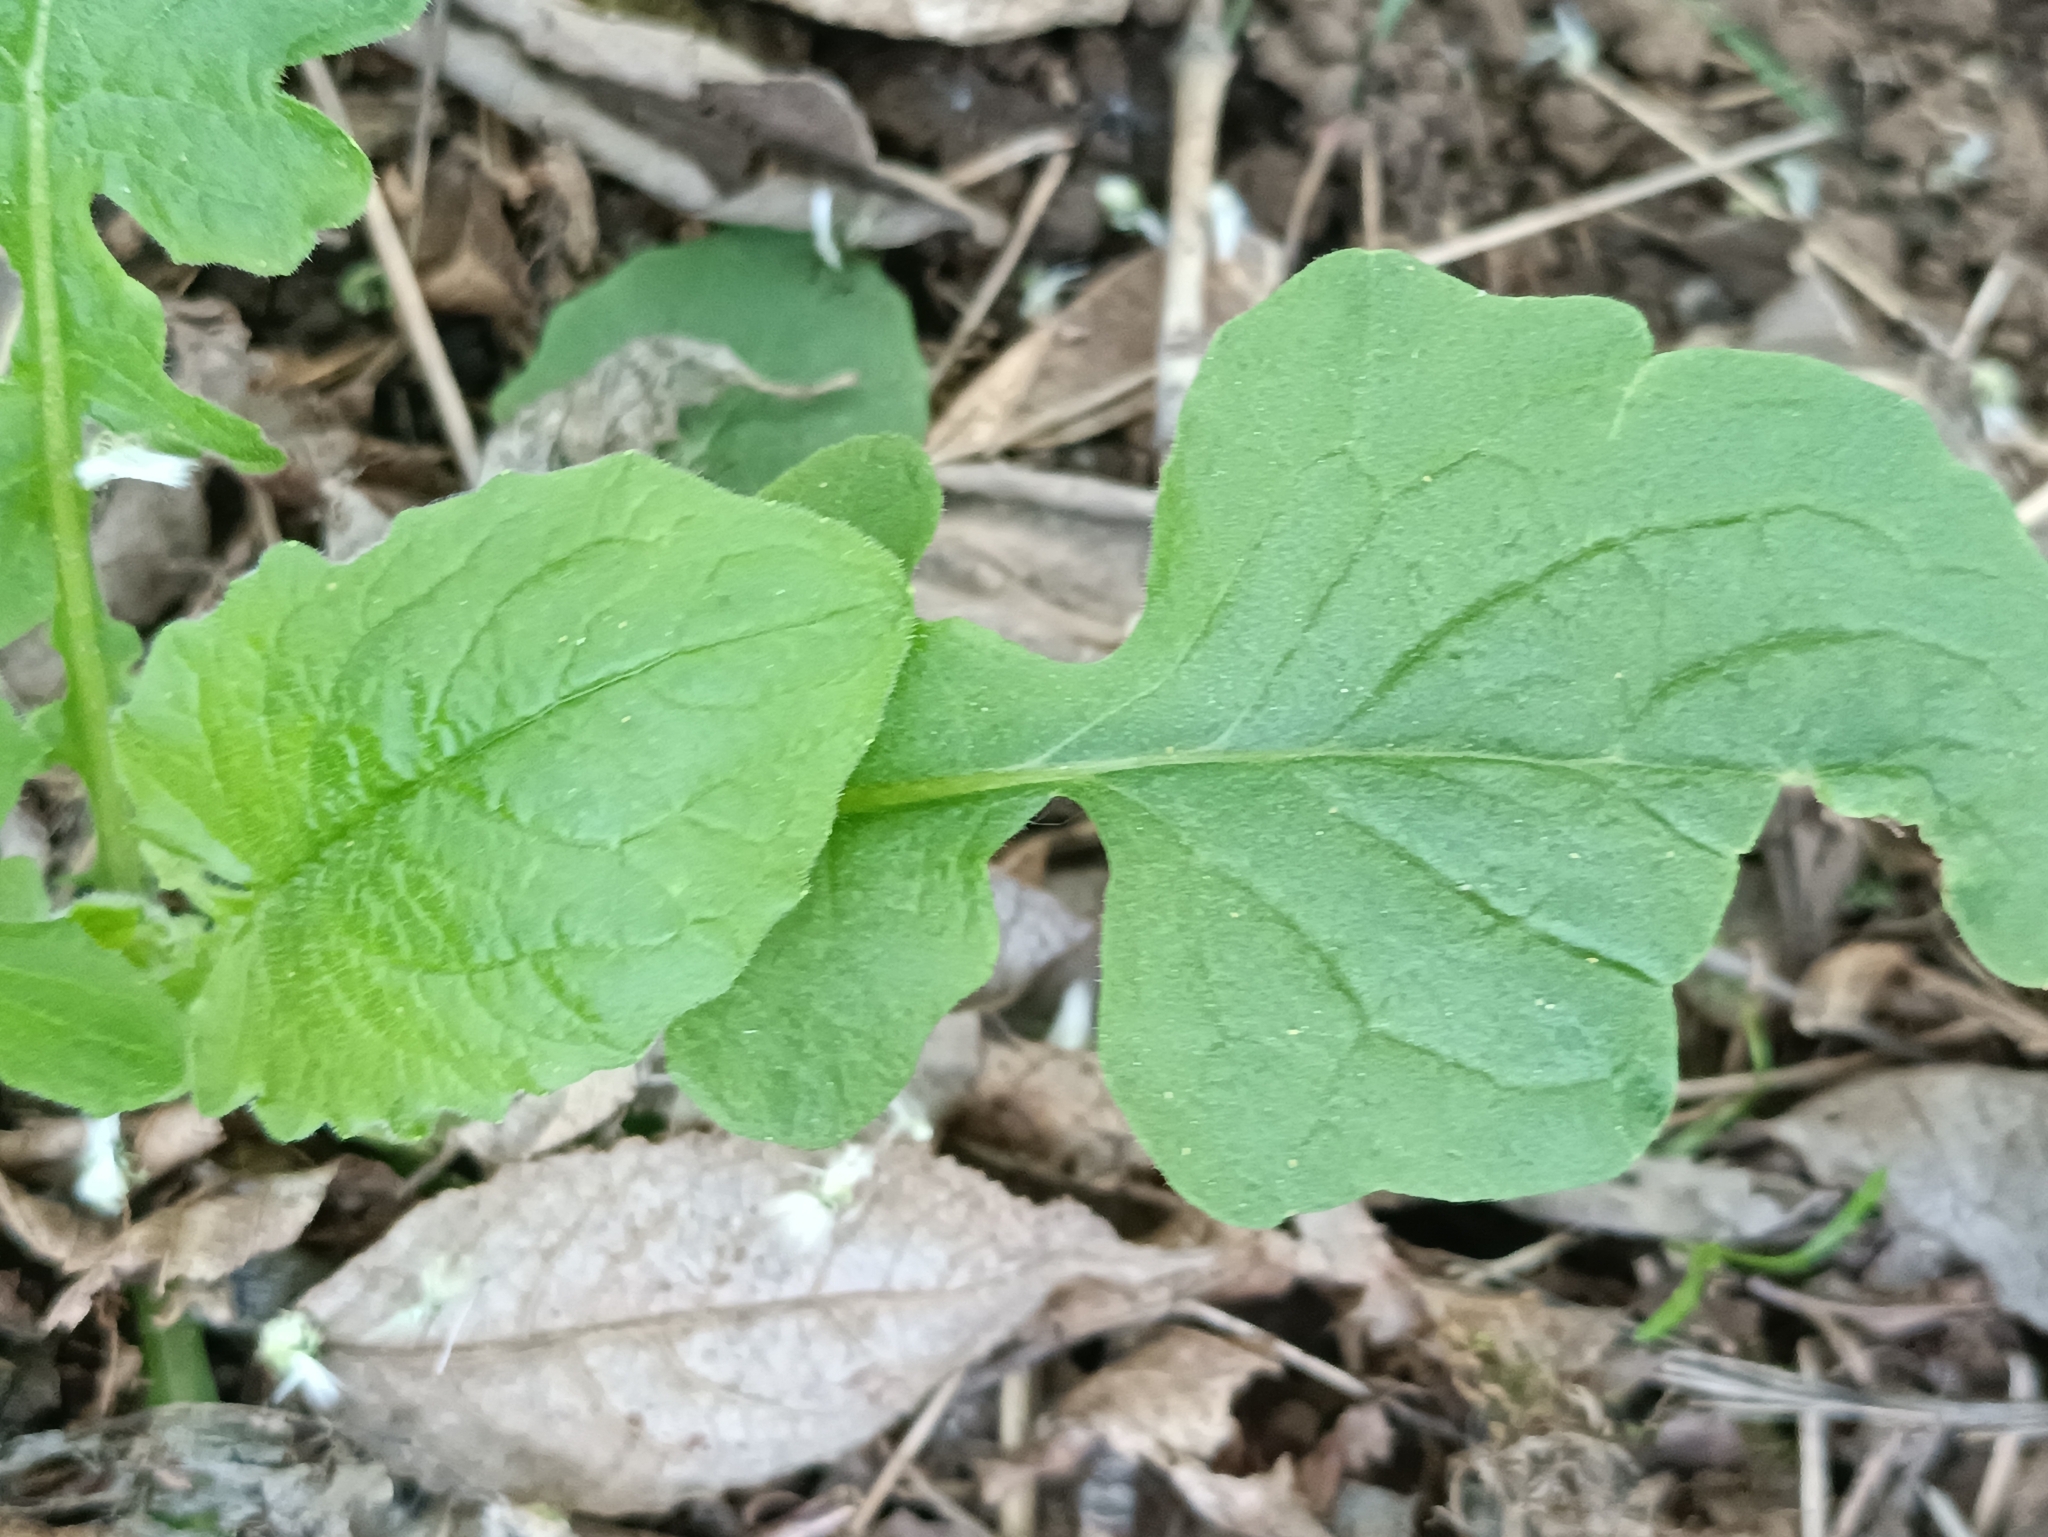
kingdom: Plantae
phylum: Tracheophyta
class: Magnoliopsida
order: Asterales
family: Asteraceae
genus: Lapsana
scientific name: Lapsana communis
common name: Nipplewort
